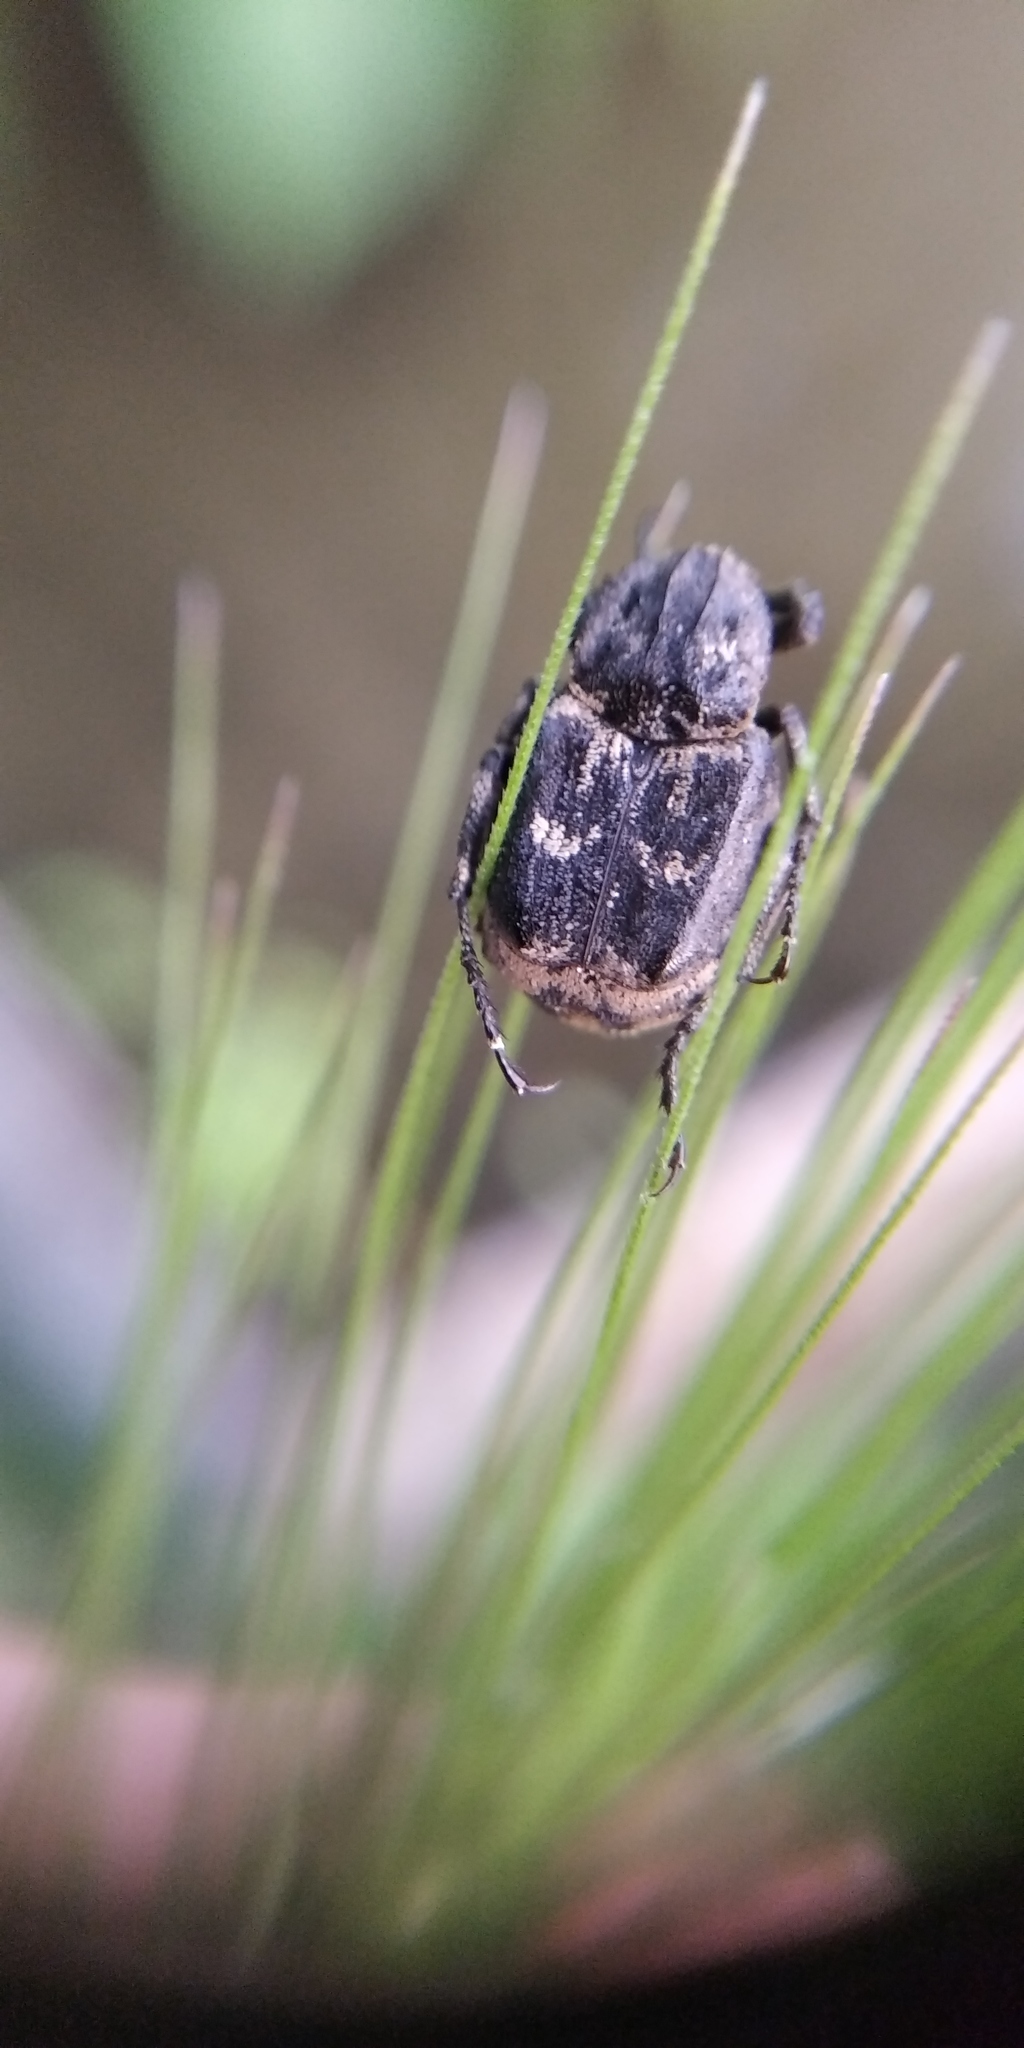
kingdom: Animalia
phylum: Arthropoda
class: Insecta
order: Coleoptera
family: Scarabaeidae
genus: Valgus
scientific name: Valgus hemipterus
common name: Bug flower chafer
